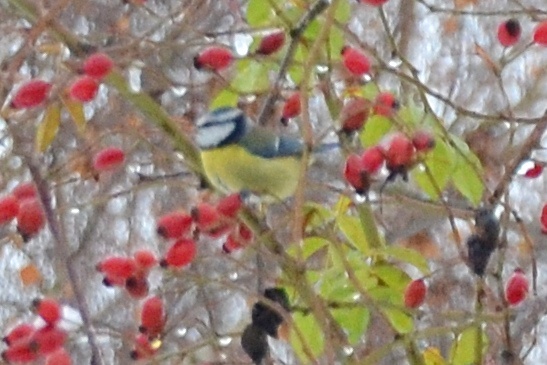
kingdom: Animalia
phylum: Chordata
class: Aves
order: Passeriformes
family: Paridae
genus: Cyanistes
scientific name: Cyanistes caeruleus
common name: Eurasian blue tit
